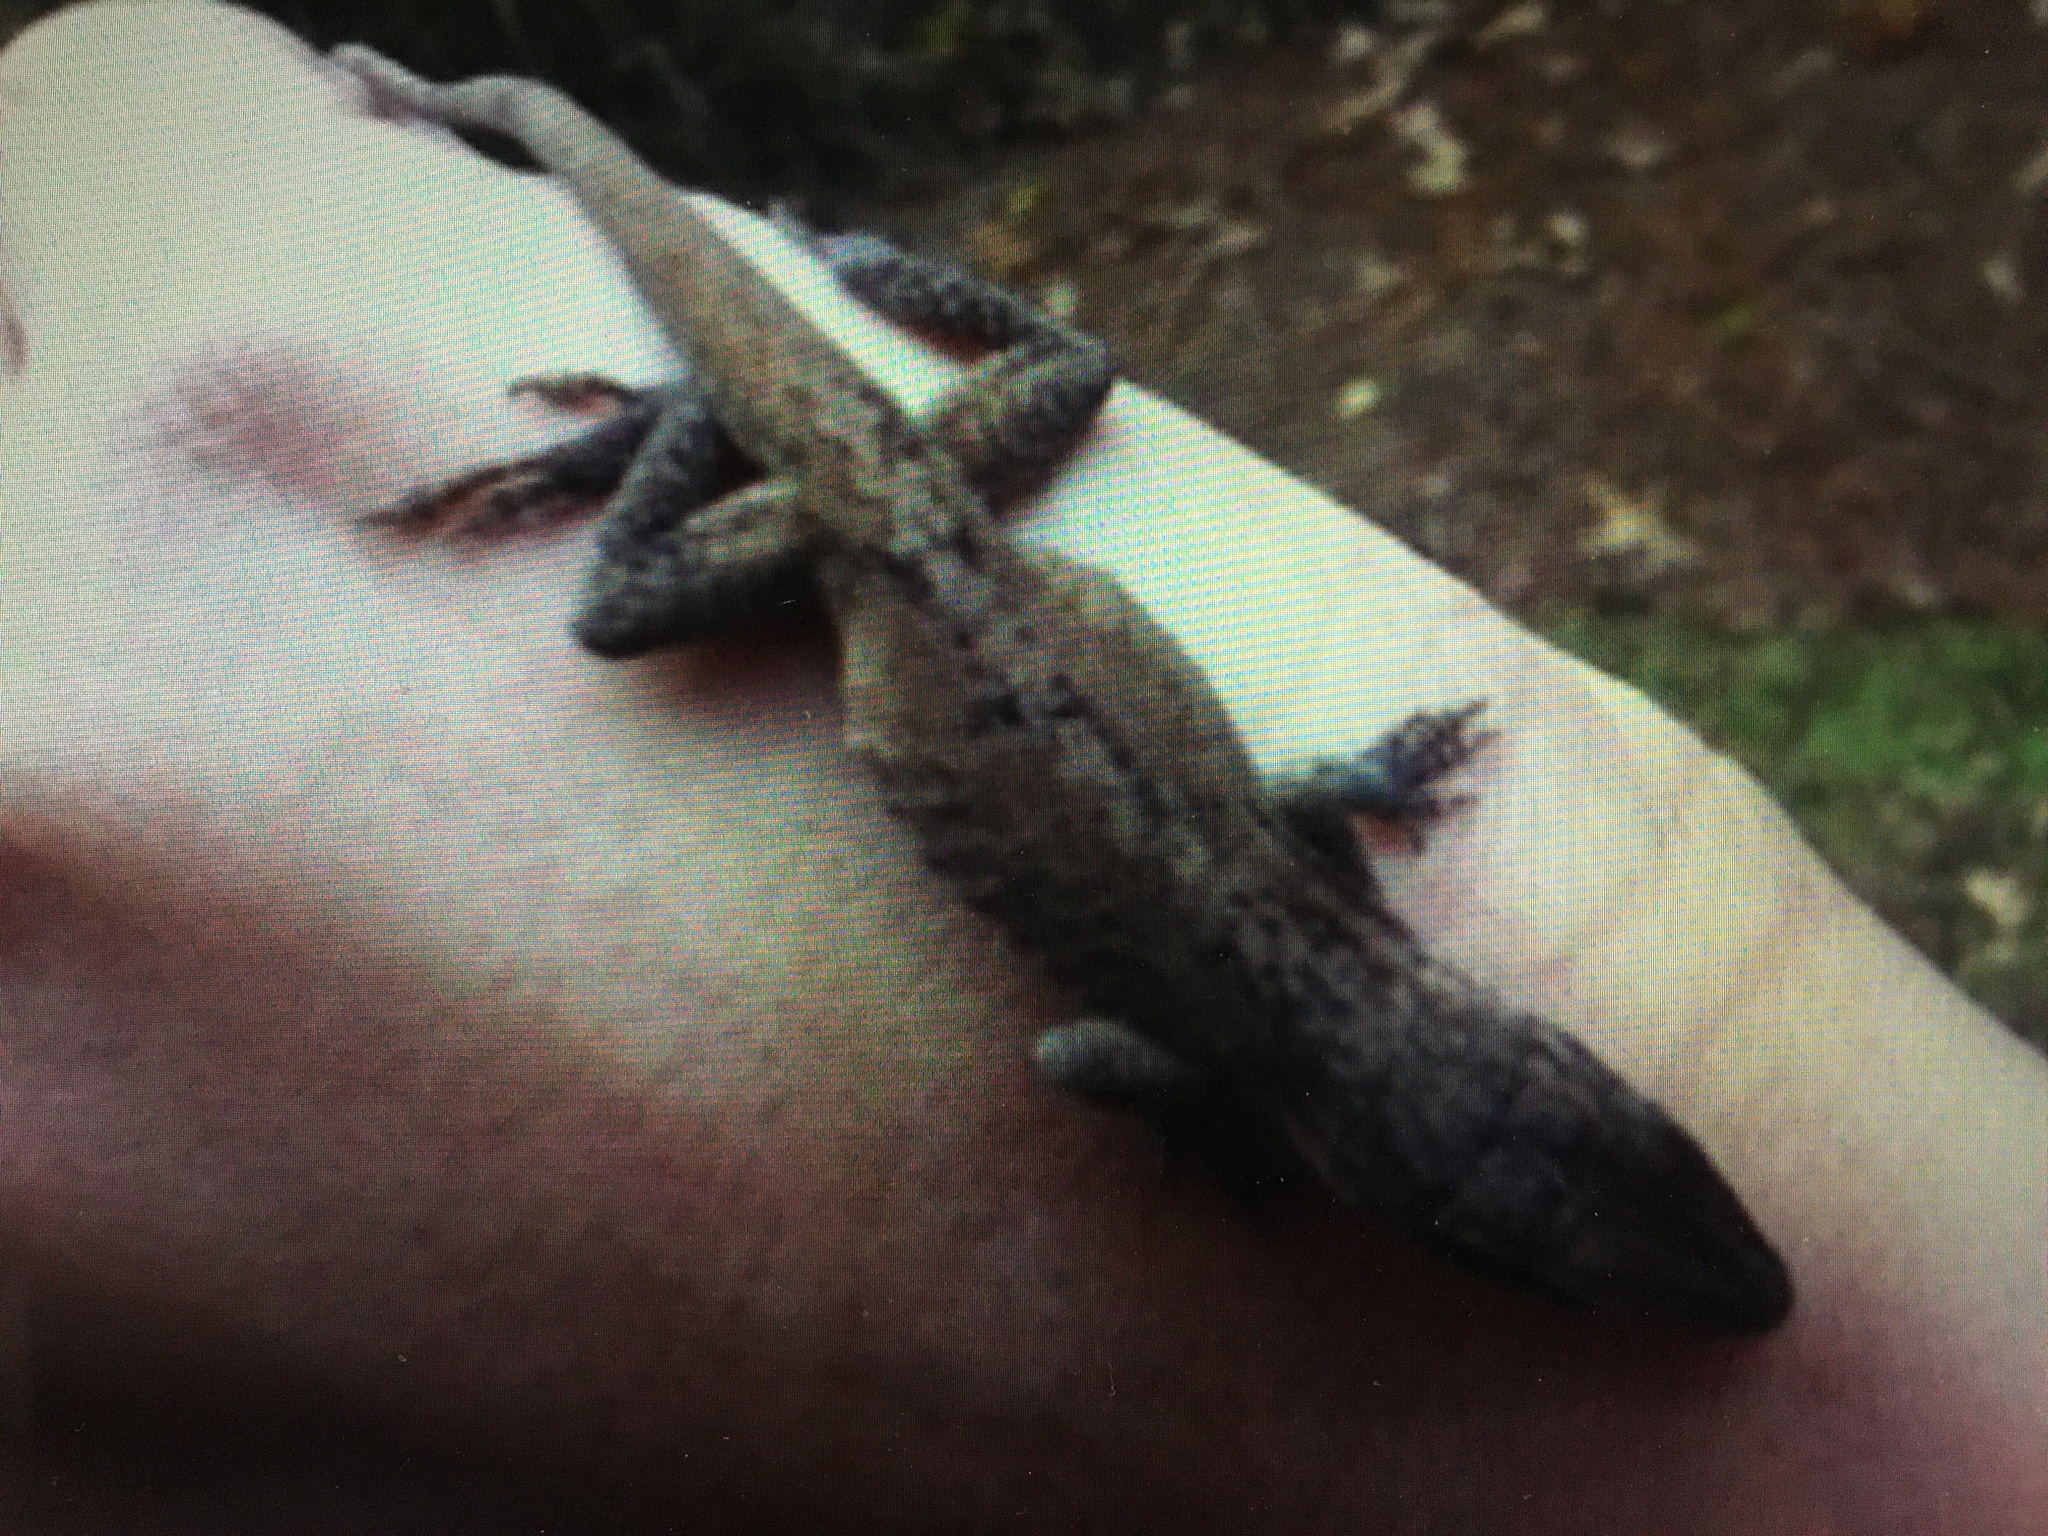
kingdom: Animalia
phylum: Chordata
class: Squamata
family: Dactyloidae
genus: Anolis
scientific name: Anolis carolinensis
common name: Green anole
